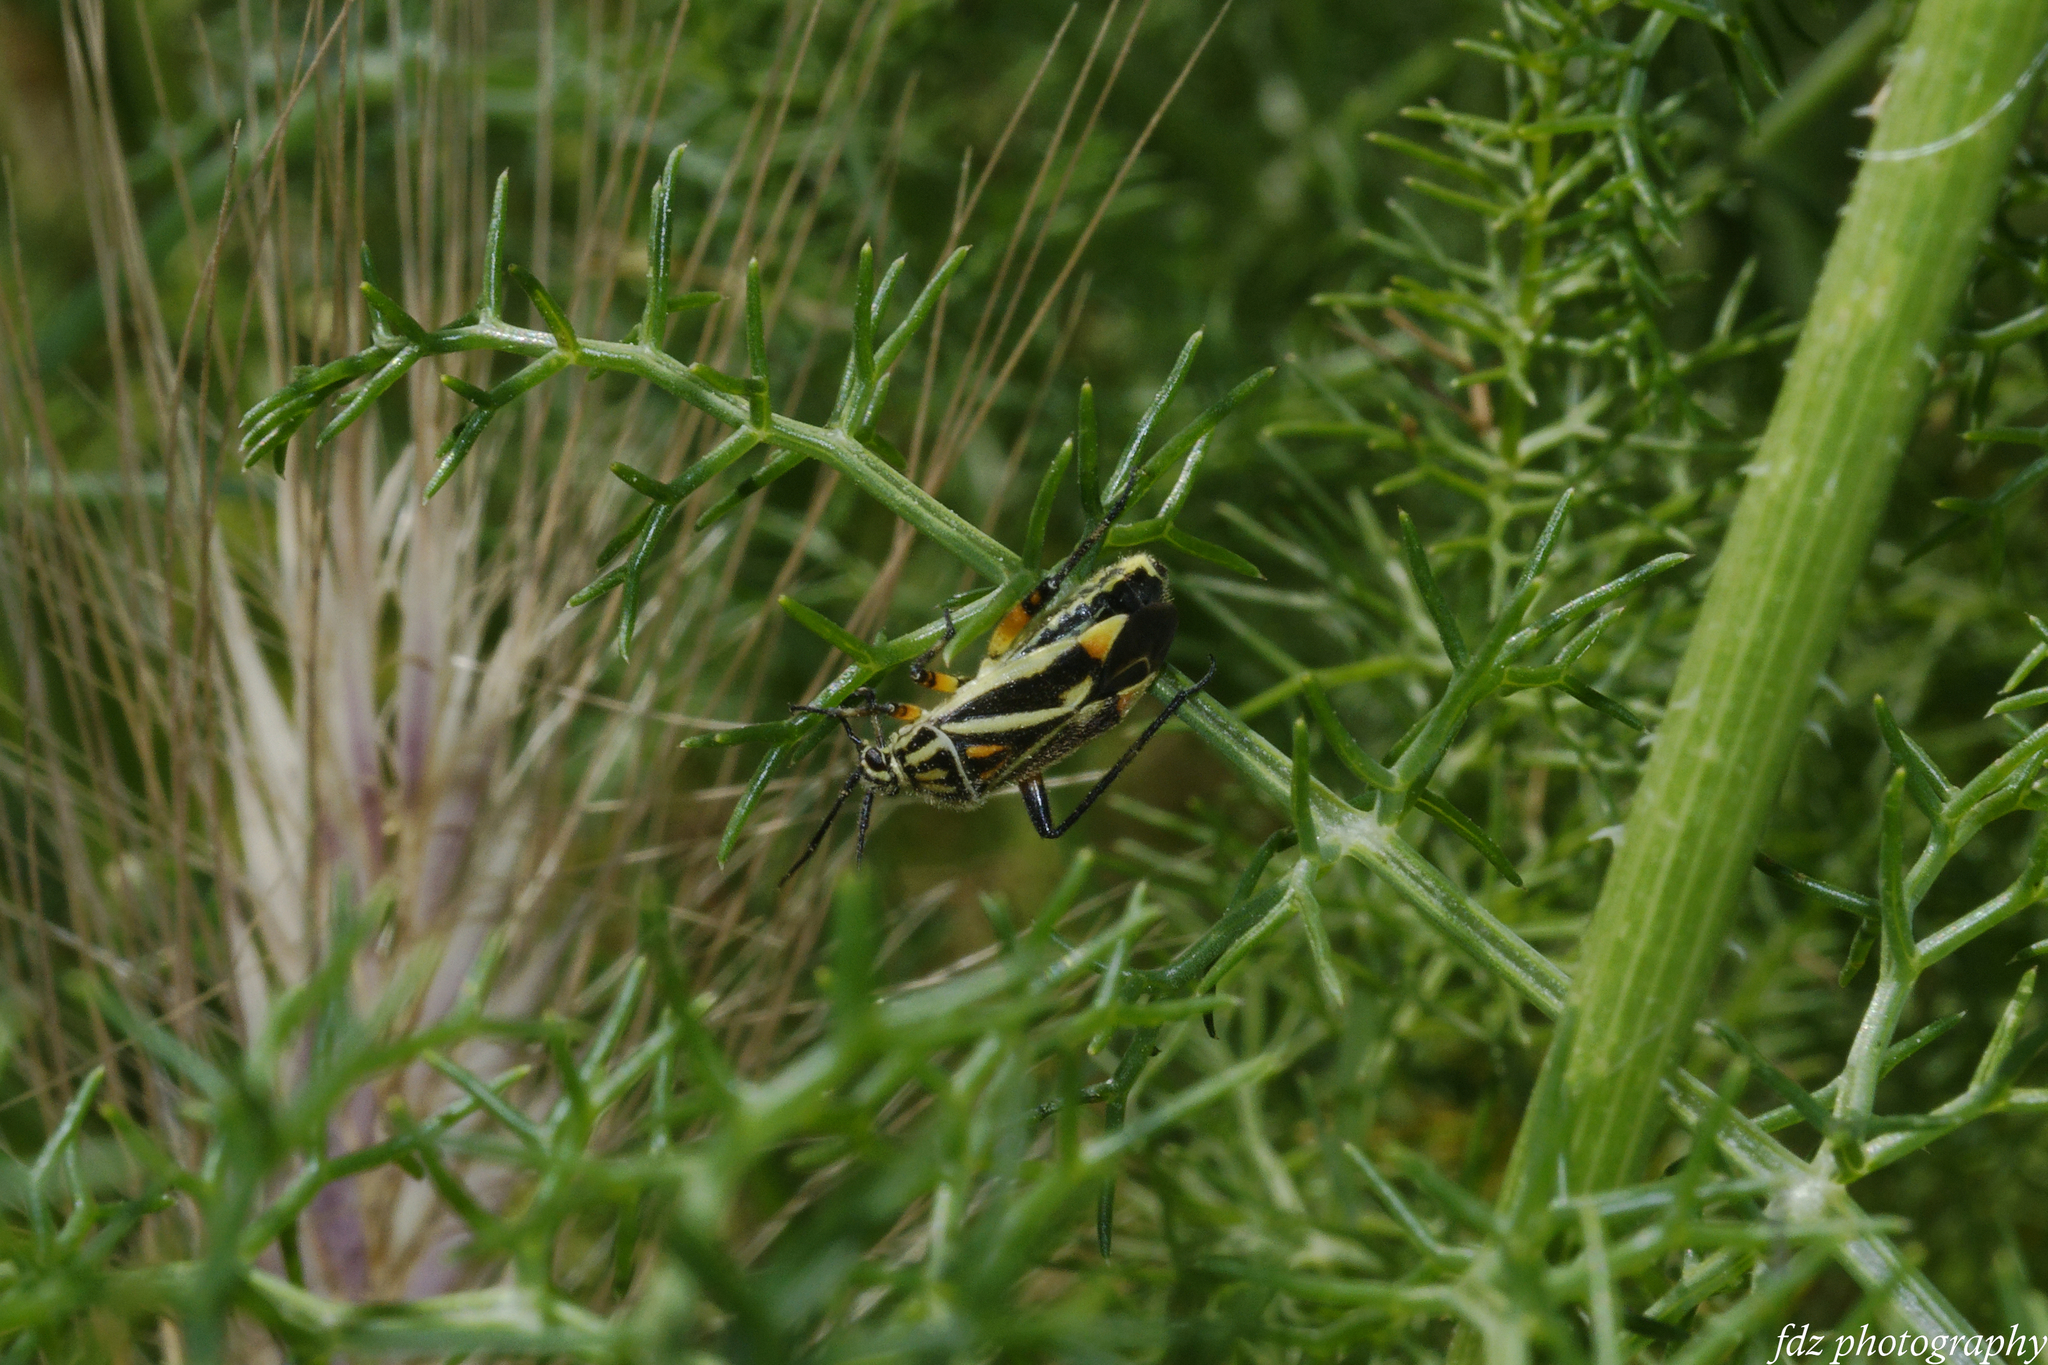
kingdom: Animalia
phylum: Arthropoda
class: Insecta
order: Hemiptera
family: Miridae
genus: Brachycoleus
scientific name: Brachycoleus sexvittatus
